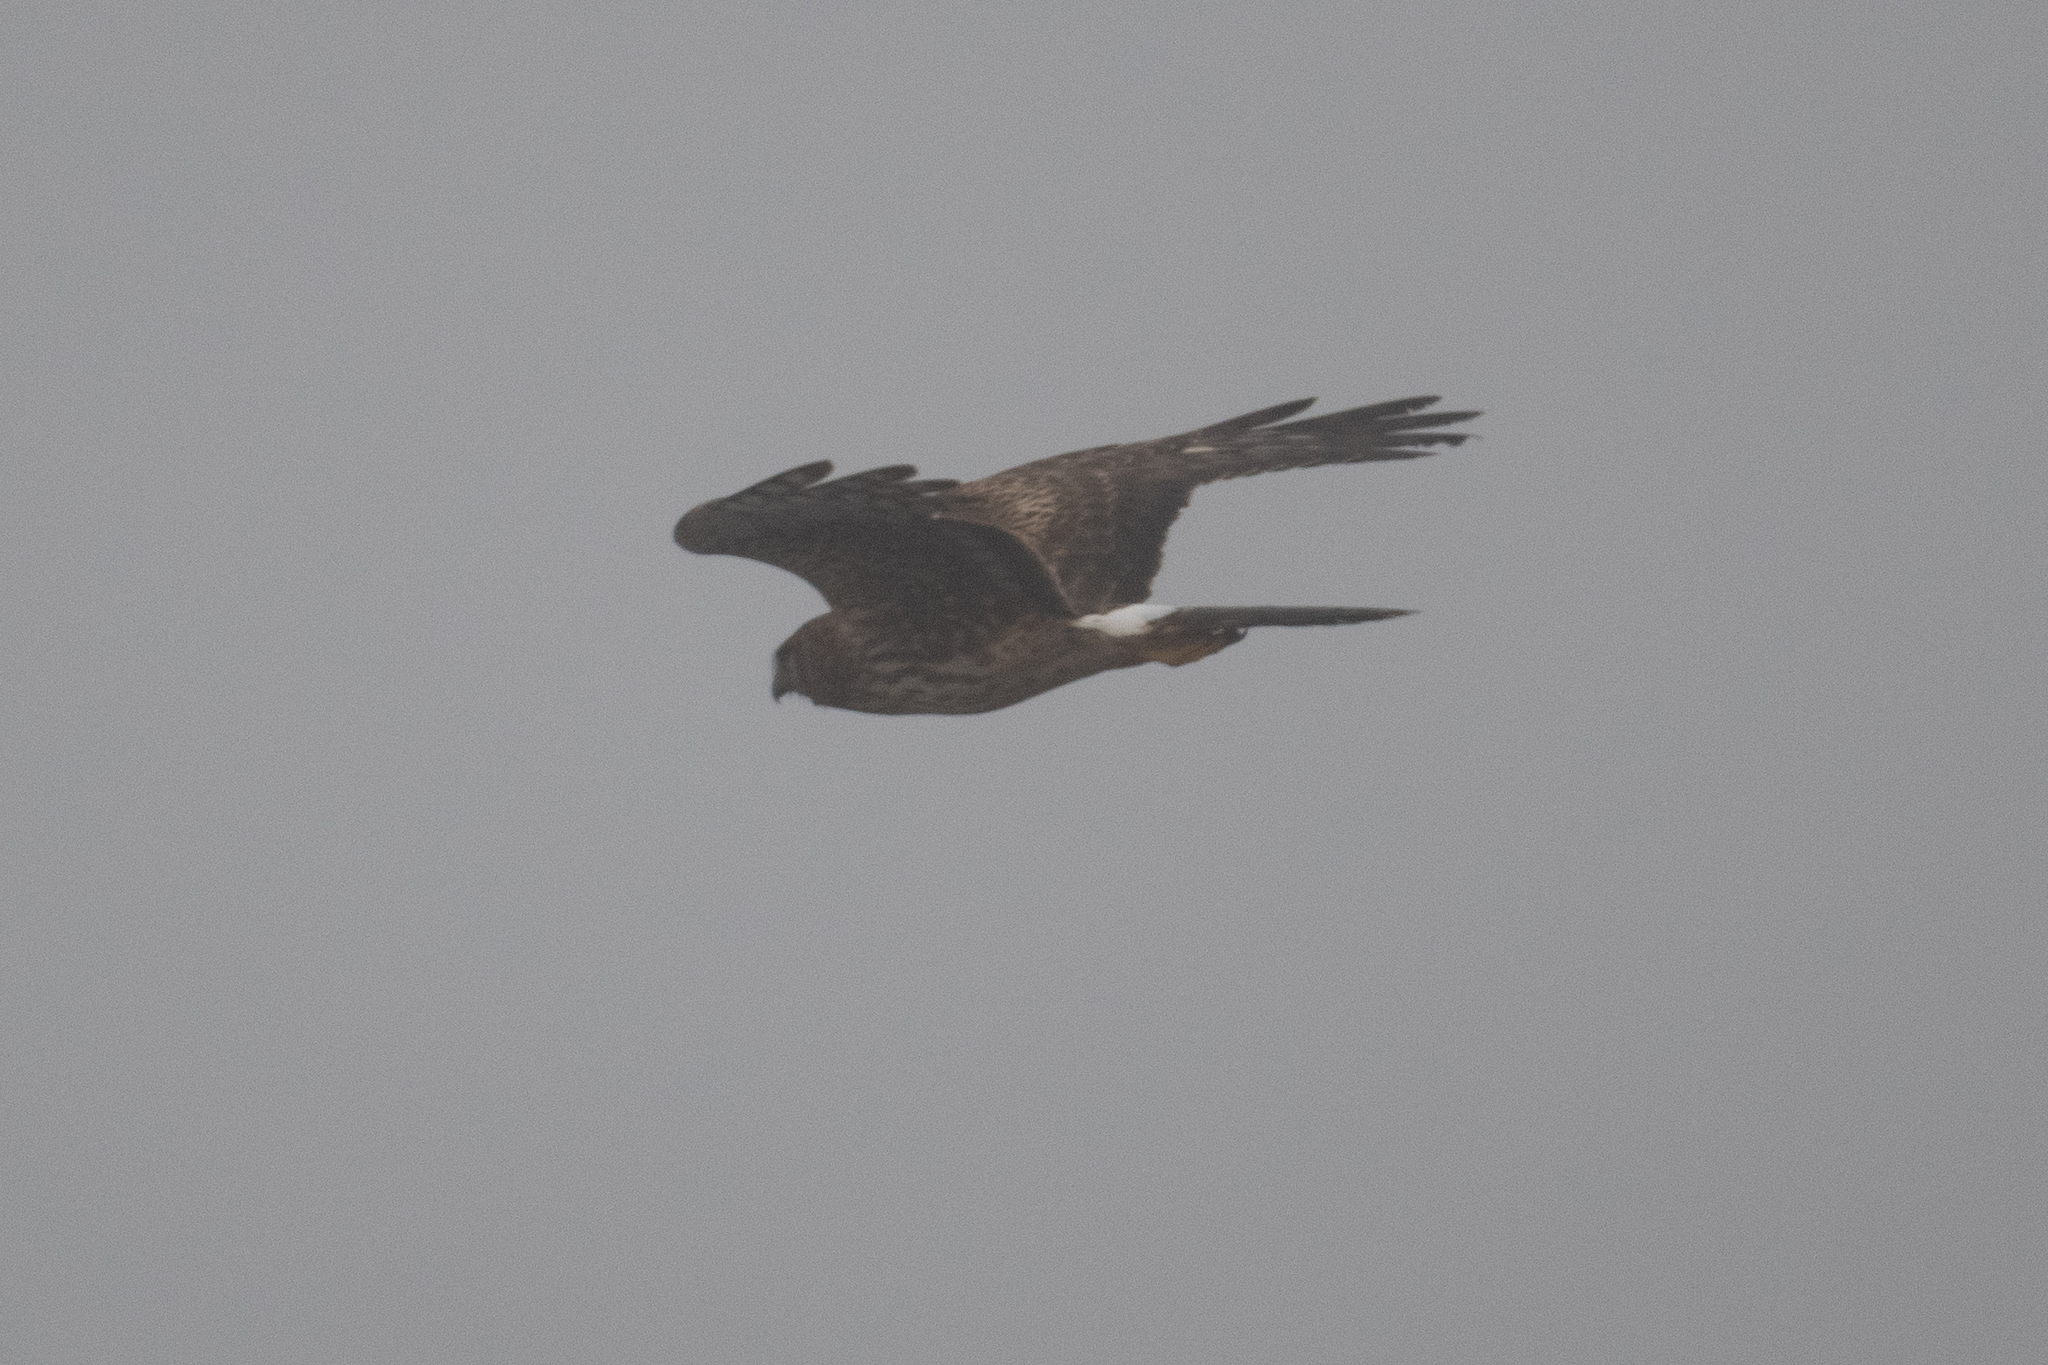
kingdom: Animalia
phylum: Chordata
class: Aves
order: Accipitriformes
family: Accipitridae
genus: Circus
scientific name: Circus cyaneus
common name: Hen harrier
